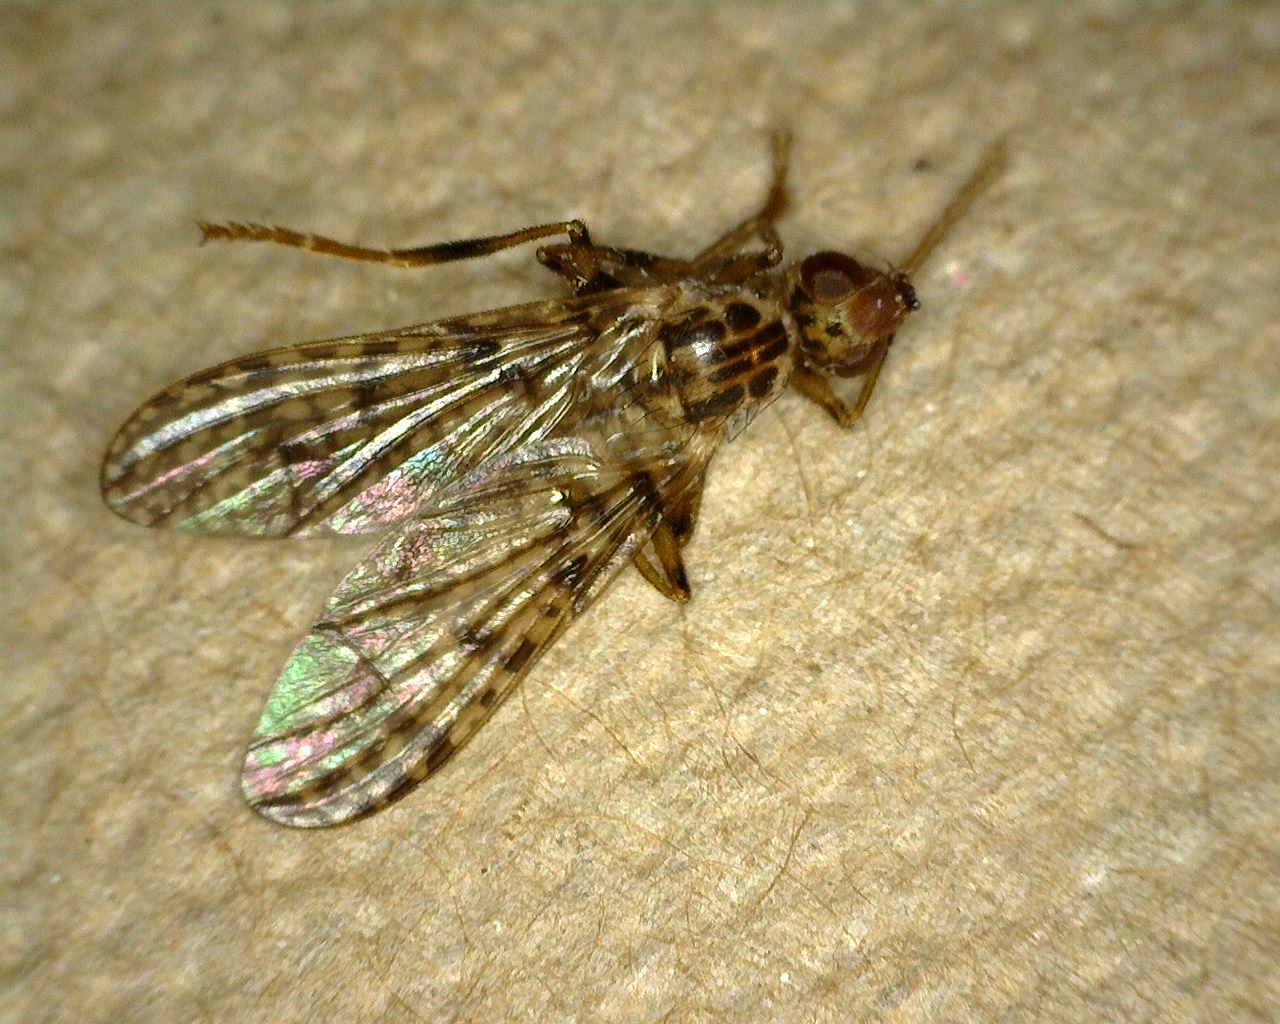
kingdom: Animalia
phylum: Arthropoda
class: Insecta
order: Diptera
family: Pyrgotidae
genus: Boreothrinax
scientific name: Boreothrinax
